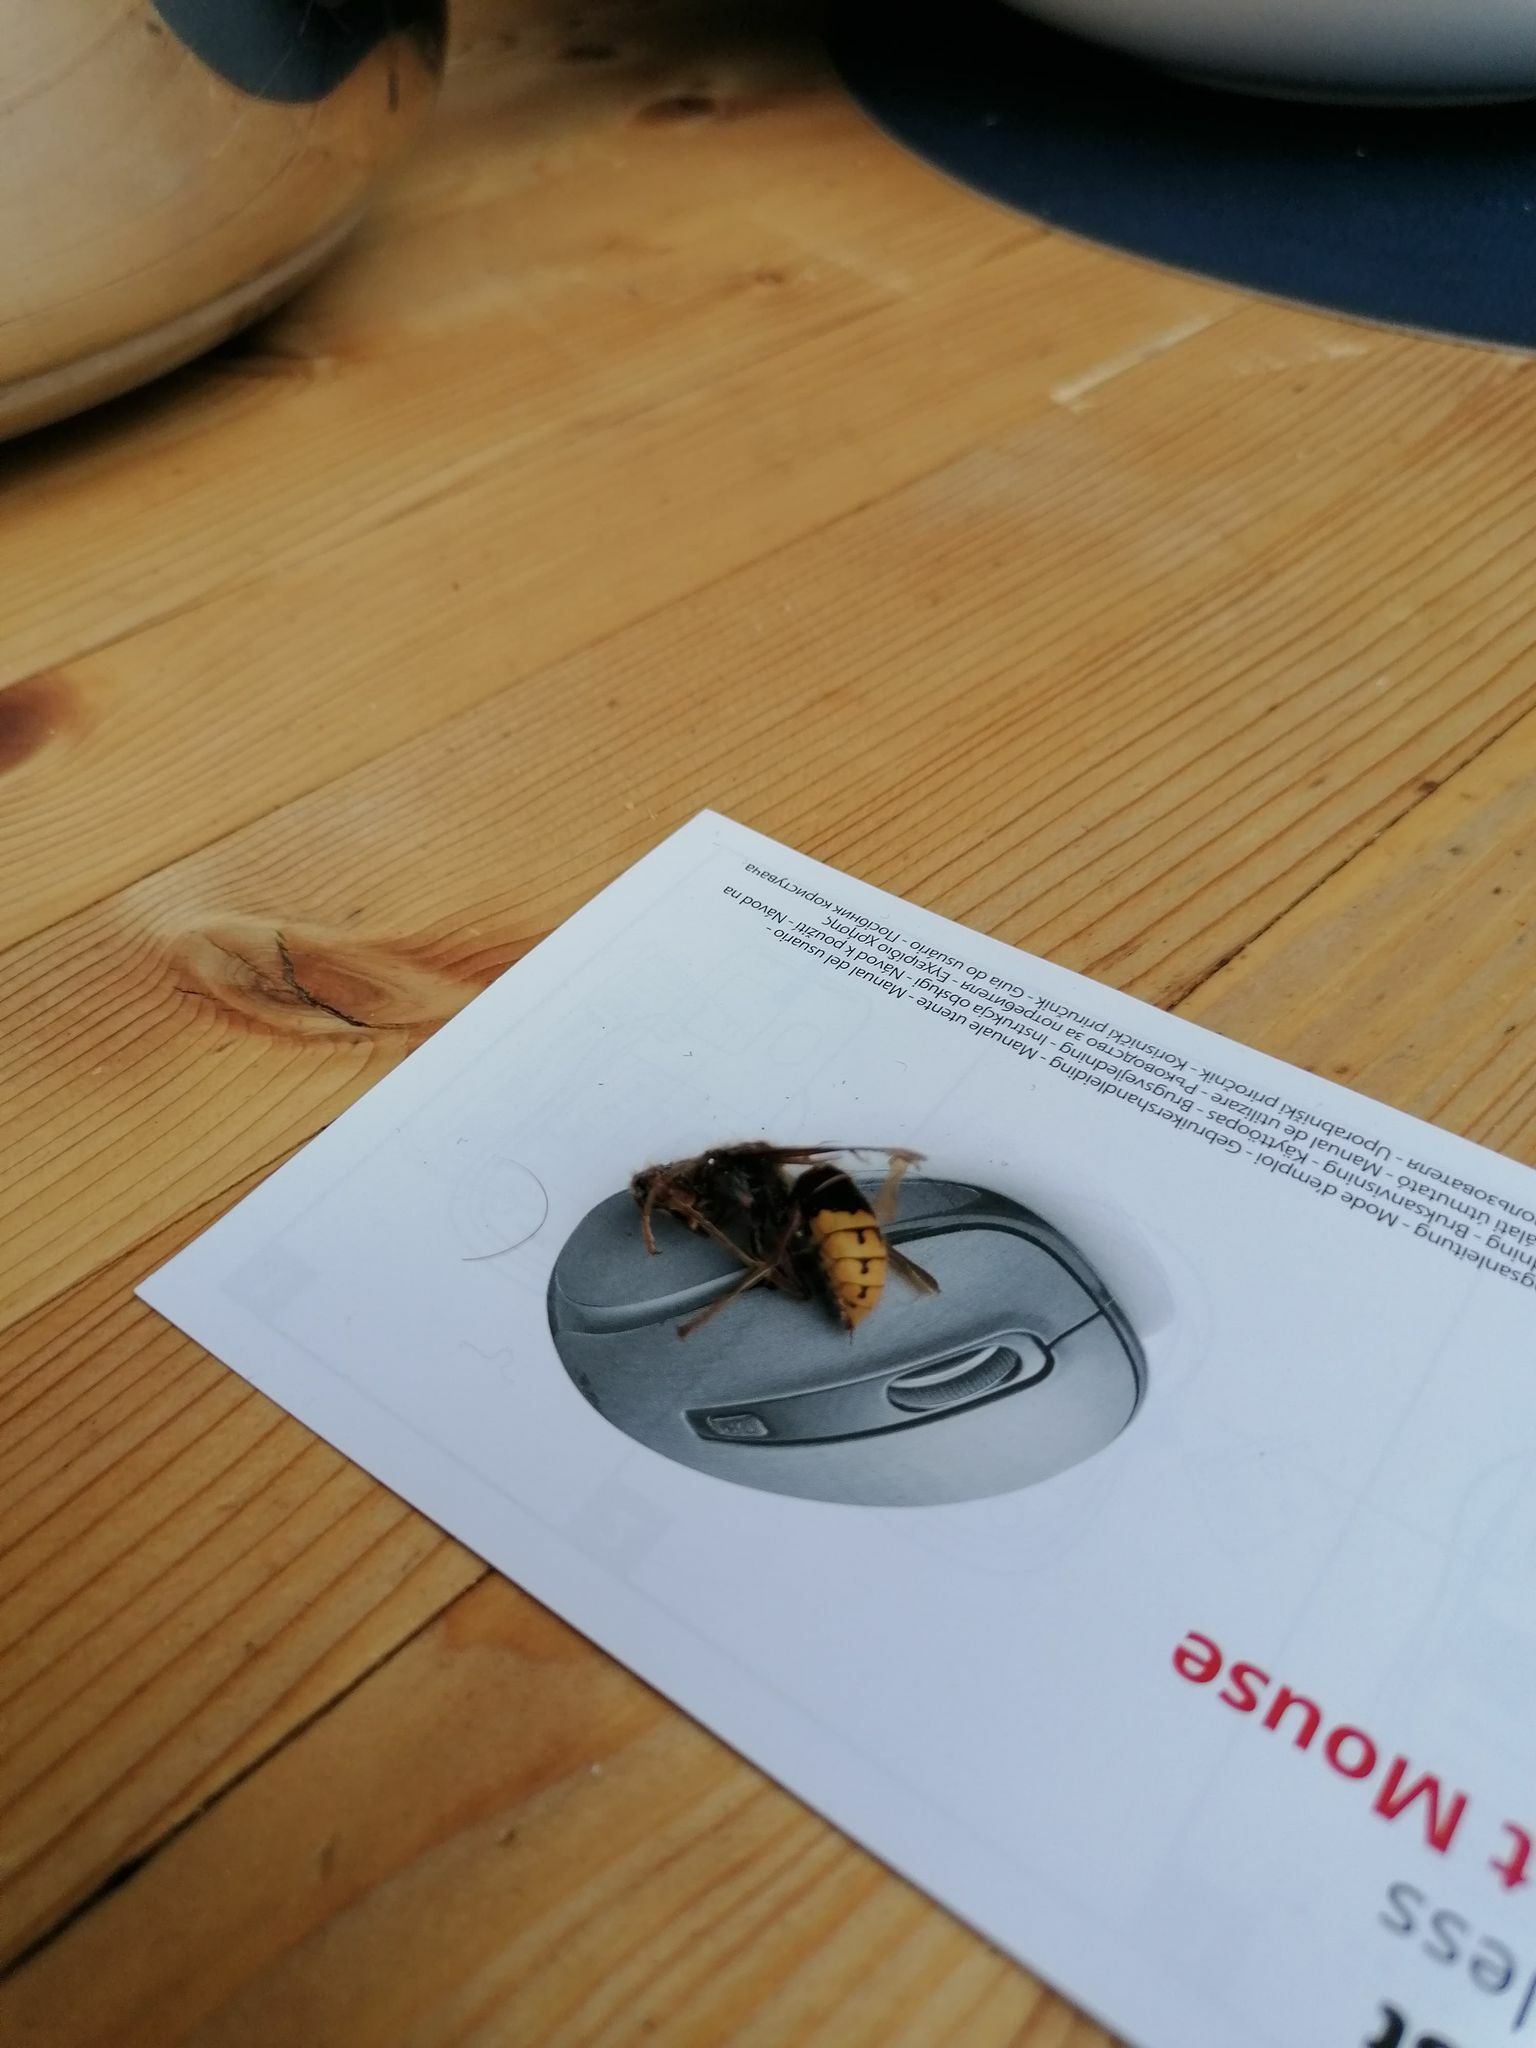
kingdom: Animalia
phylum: Arthropoda
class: Insecta
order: Hymenoptera
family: Vespidae
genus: Vespa
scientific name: Vespa crabro
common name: Hornet
